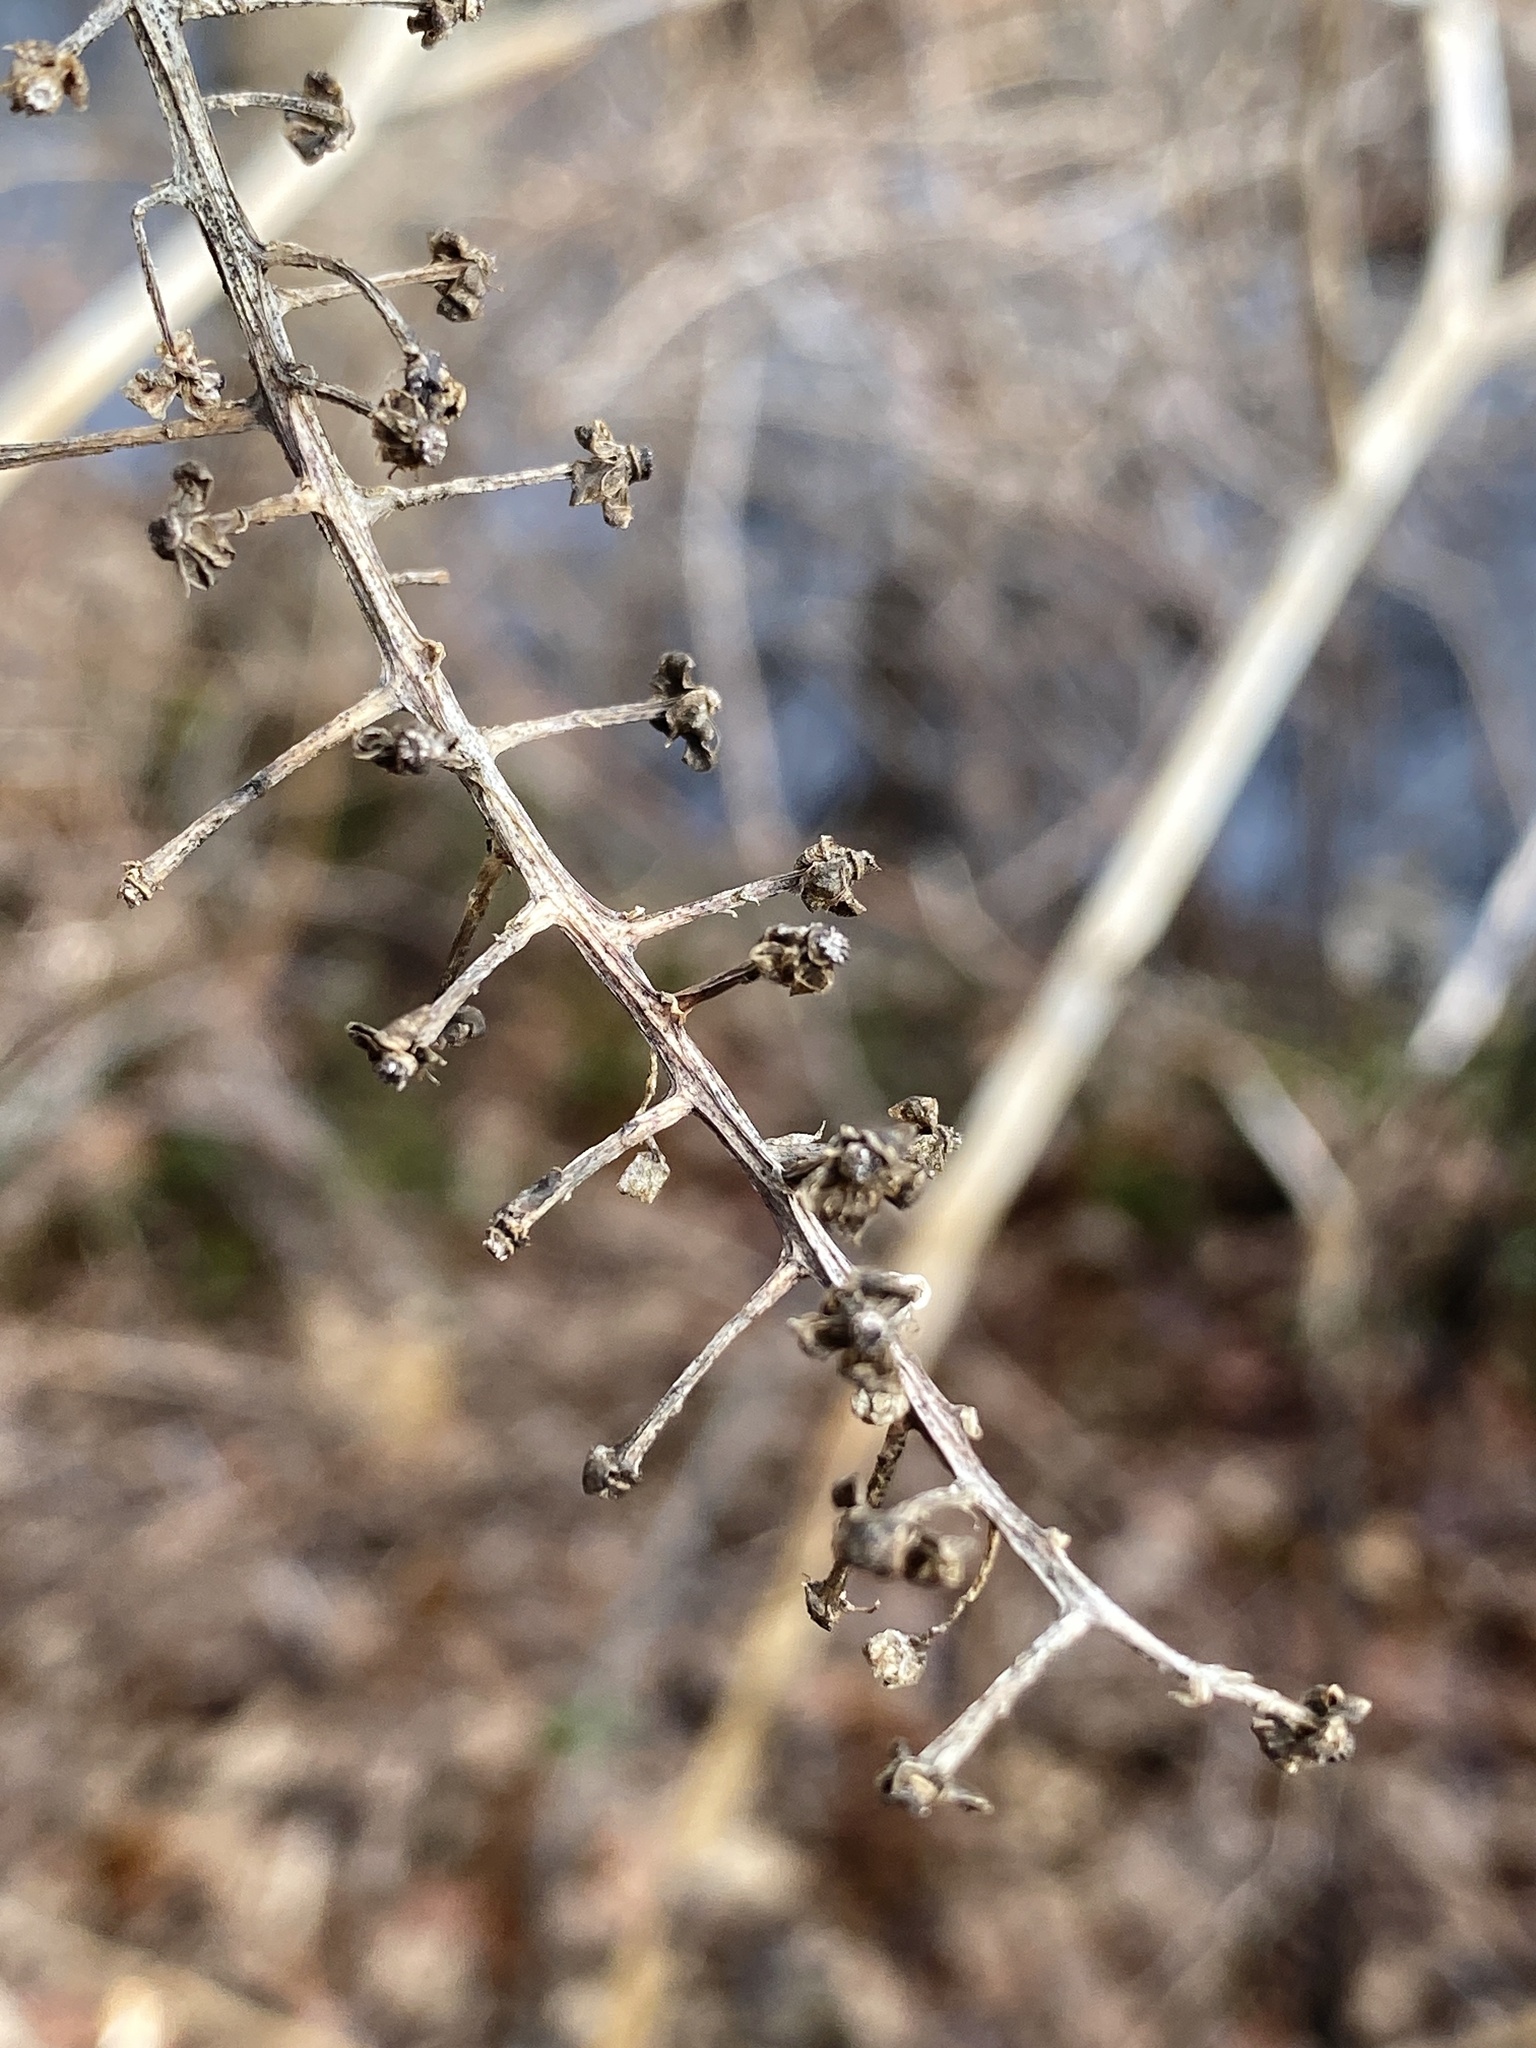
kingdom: Plantae
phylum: Tracheophyta
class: Magnoliopsida
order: Caryophyllales
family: Phytolaccaceae
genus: Phytolacca
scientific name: Phytolacca americana
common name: American pokeweed
